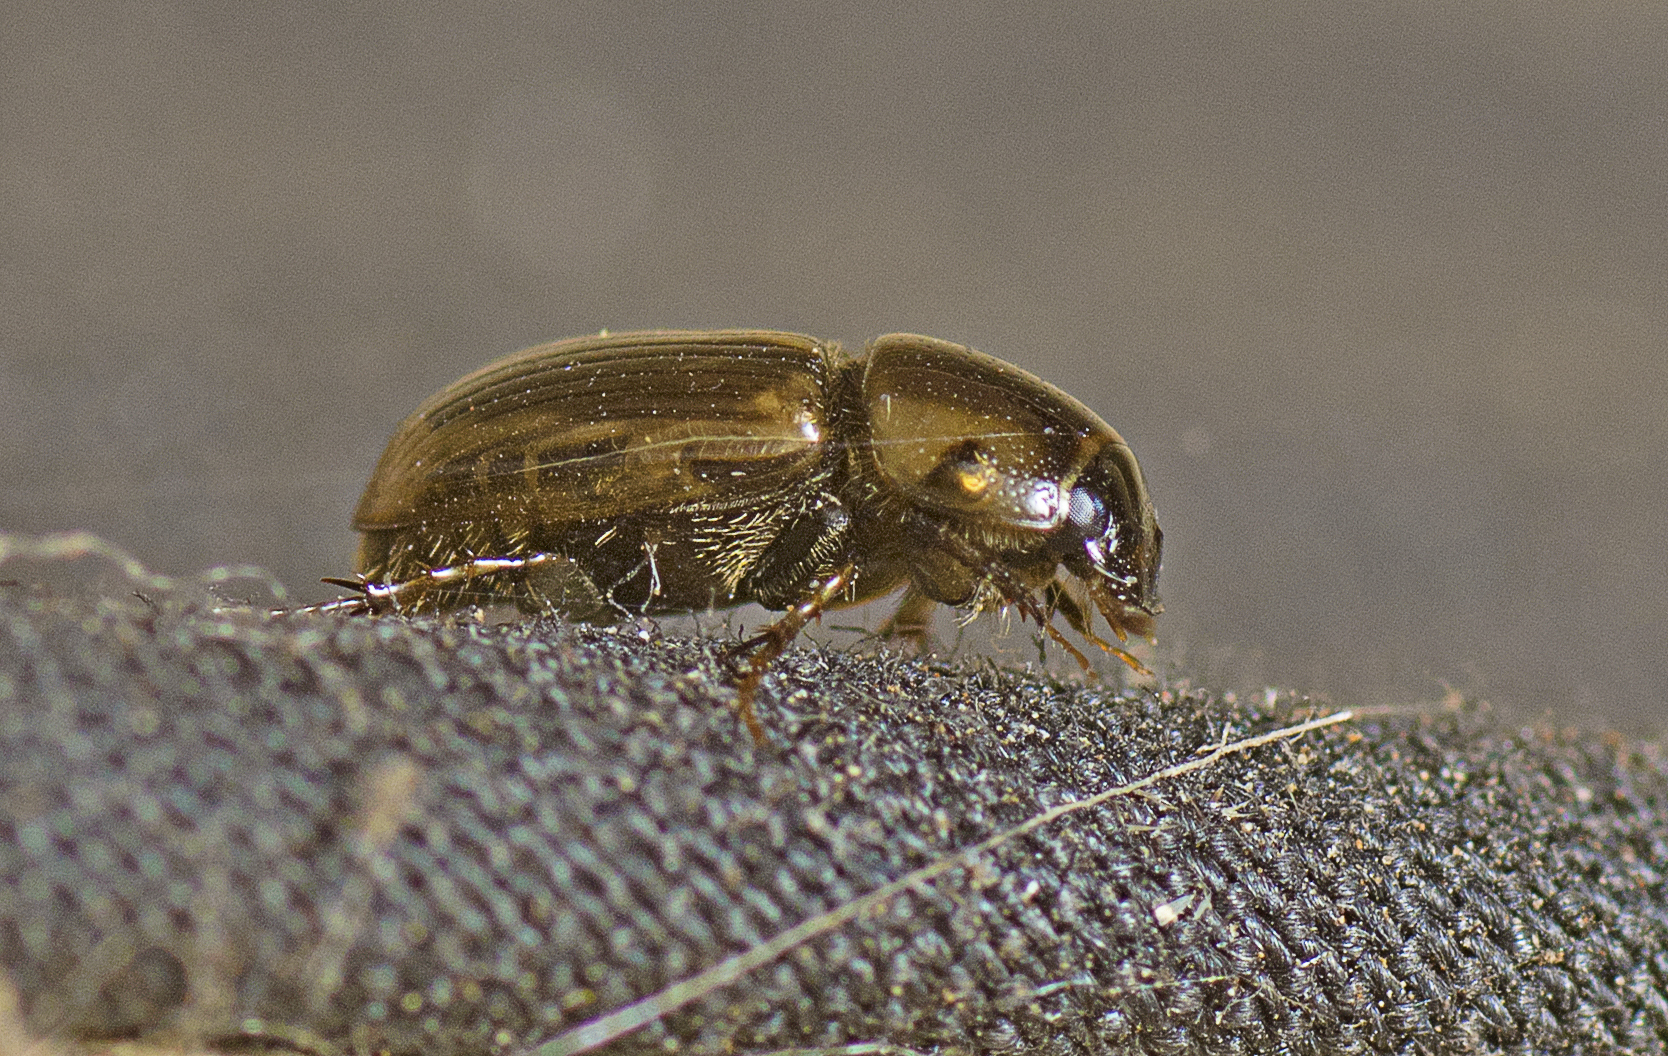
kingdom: Animalia
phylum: Arthropoda
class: Insecta
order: Coleoptera
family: Scarabaeidae
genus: Labarrus
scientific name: Labarrus lividus
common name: Scarab beetle
